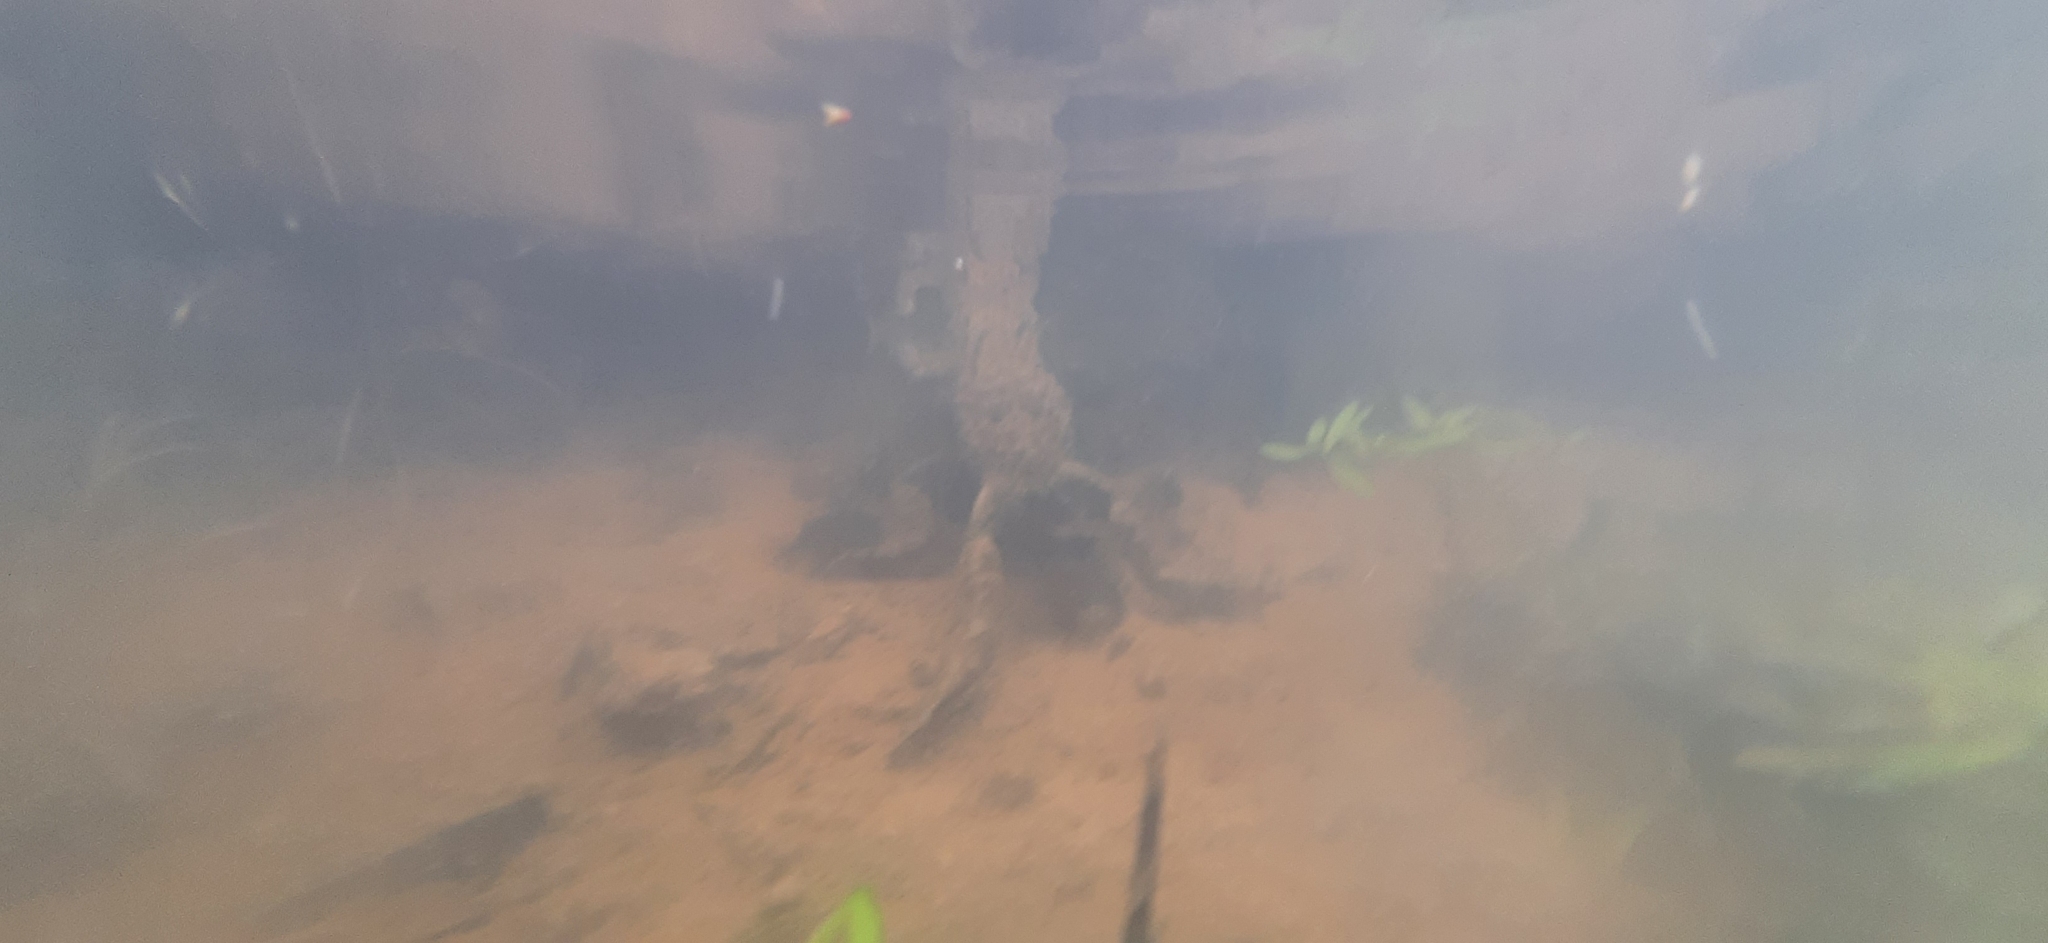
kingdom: Animalia
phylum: Chordata
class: Amphibia
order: Anura
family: Bombinatoridae
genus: Bombina
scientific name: Bombina variegata
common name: Yellow-bellied toad
